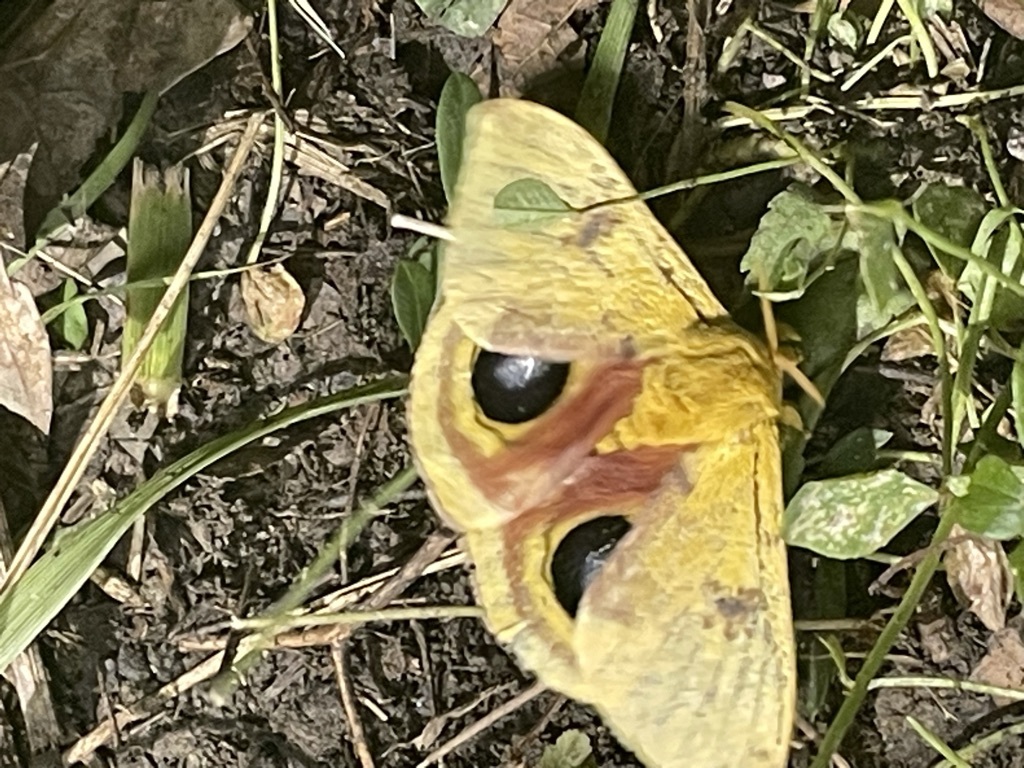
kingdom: Animalia
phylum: Arthropoda
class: Insecta
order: Lepidoptera
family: Saturniidae
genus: Automeris
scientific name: Automeris io
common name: Io moth
